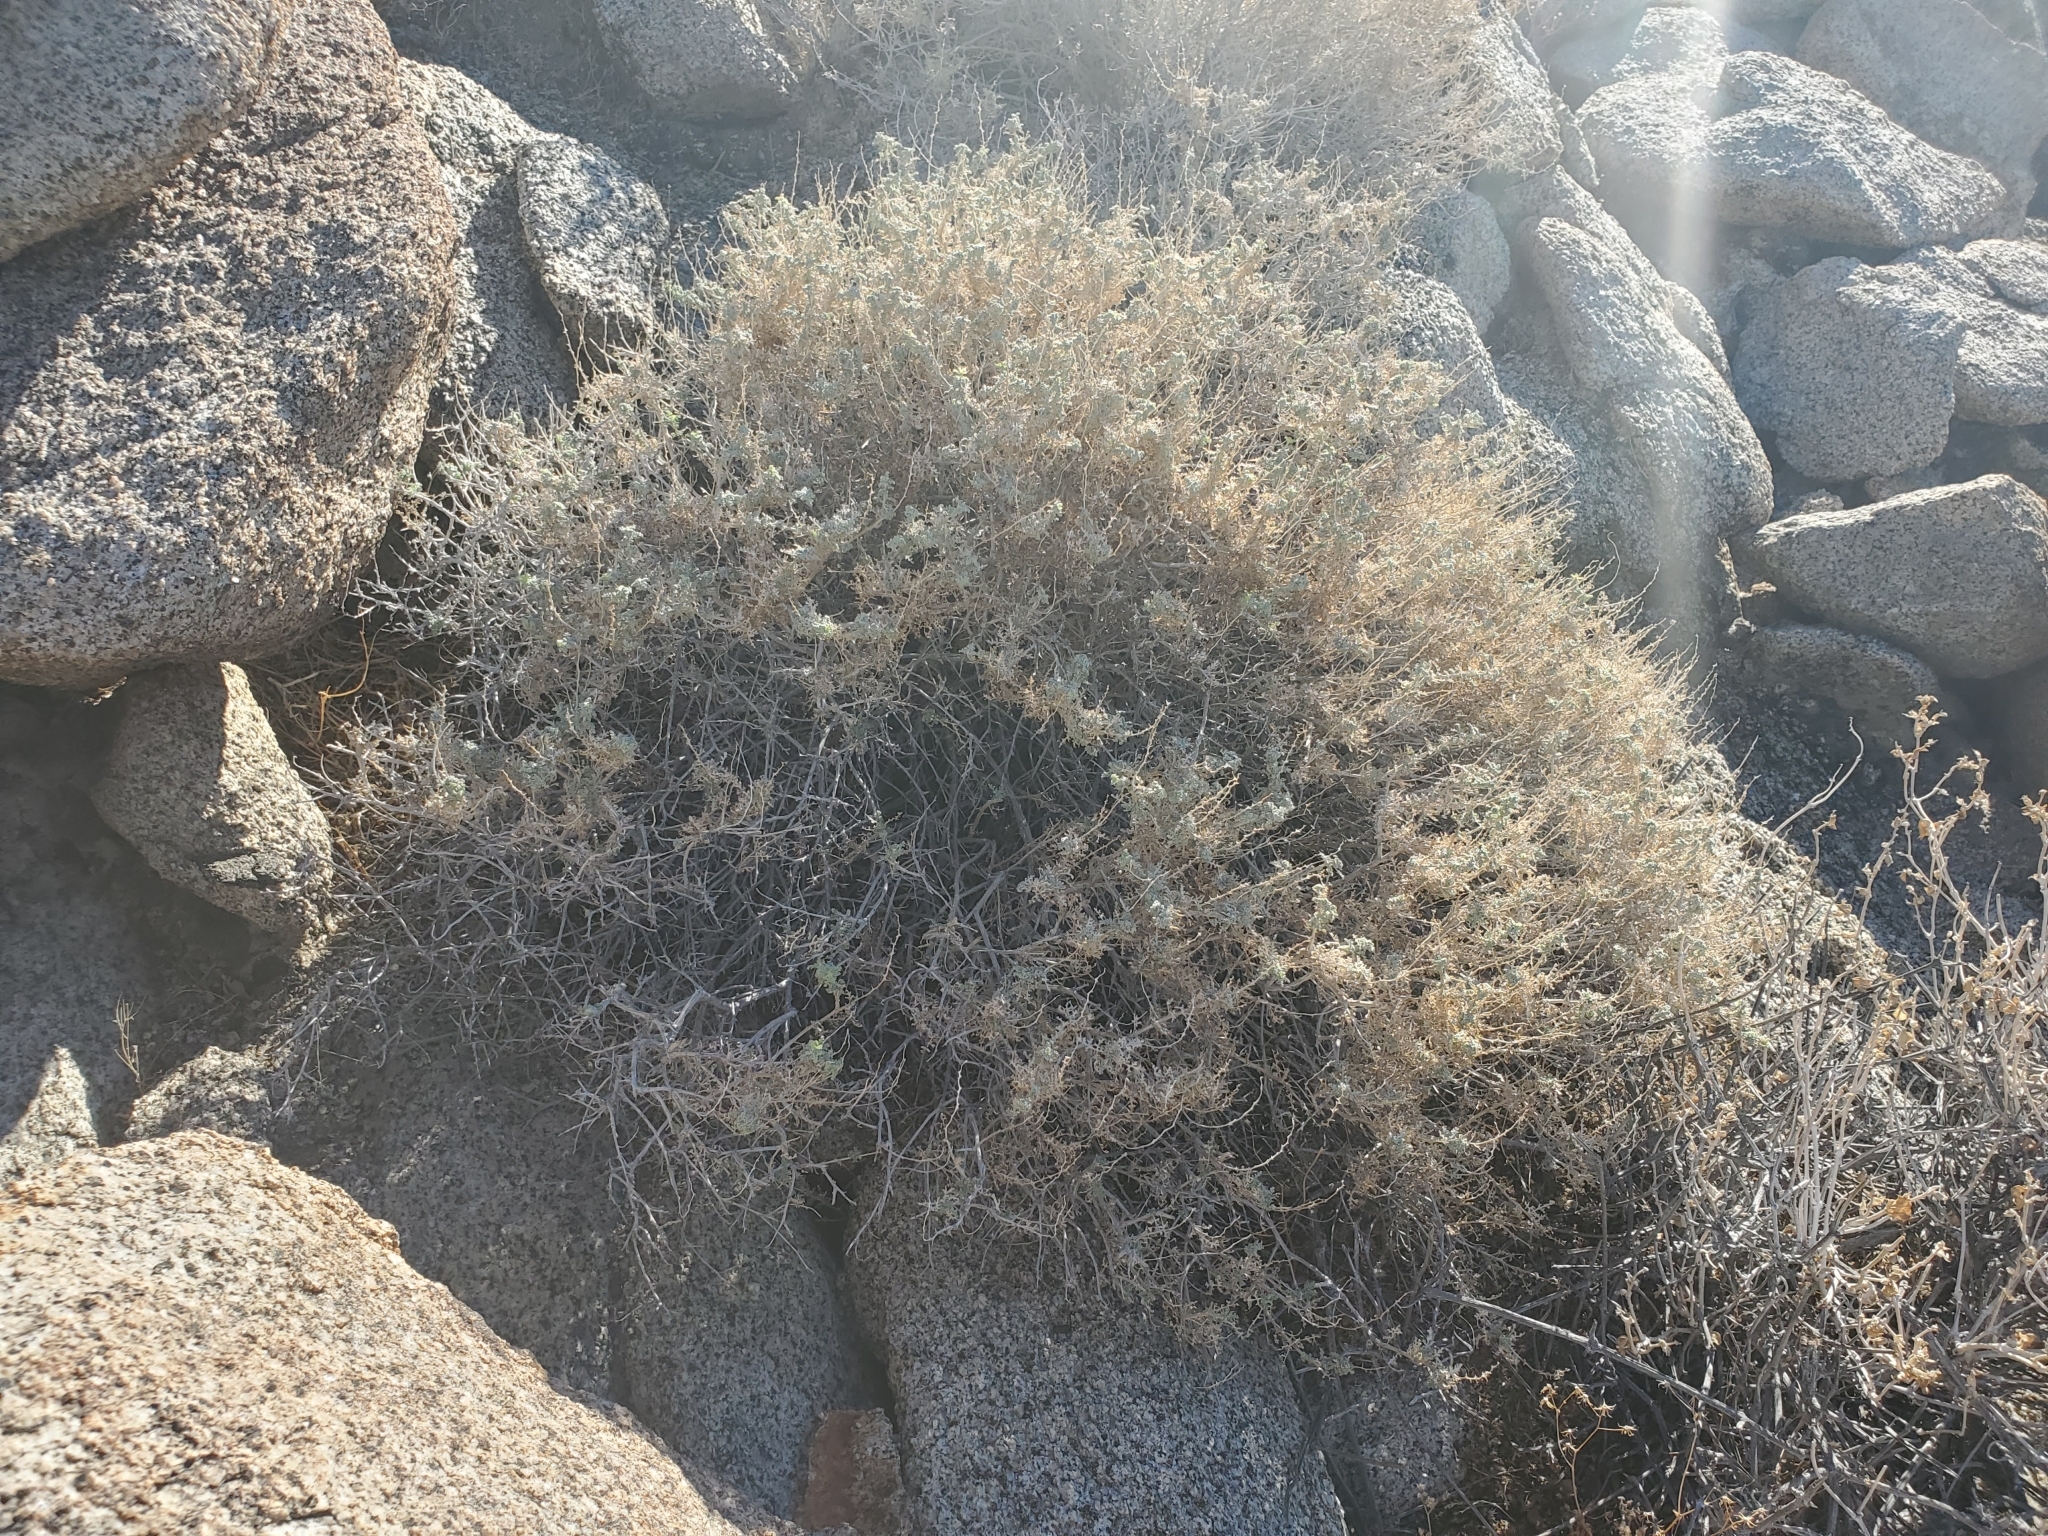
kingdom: Plantae
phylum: Tracheophyta
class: Magnoliopsida
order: Asterales
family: Asteraceae
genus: Ambrosia
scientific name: Ambrosia dumosa
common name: Bur-sage
